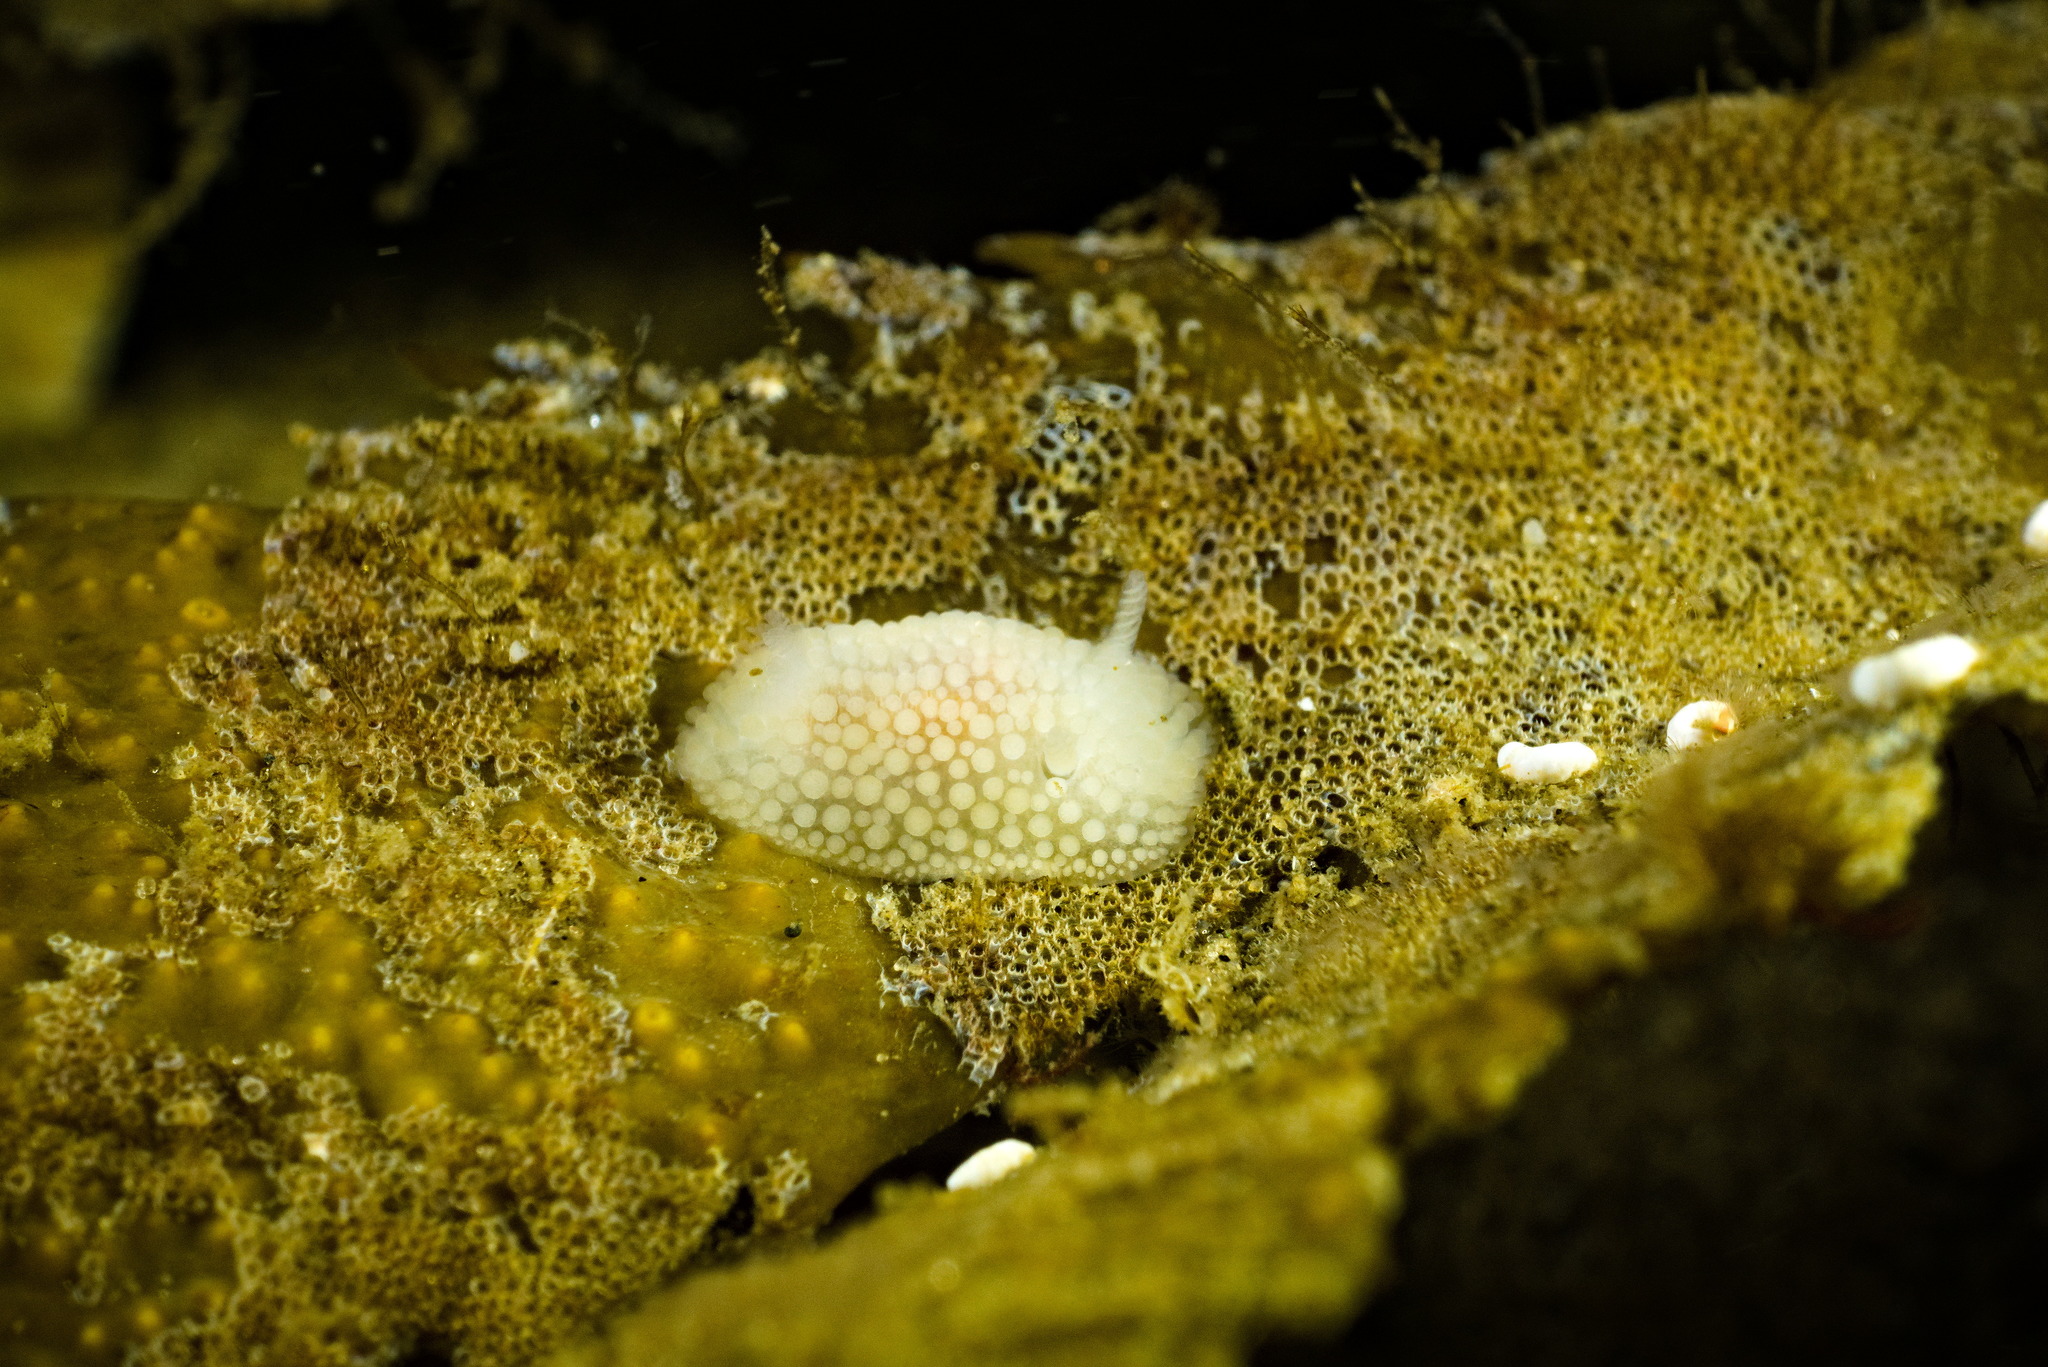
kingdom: Animalia
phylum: Mollusca
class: Gastropoda
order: Nudibranchia
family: Onchidorididae
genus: Onchidoris
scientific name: Onchidoris muricata
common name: Rough doris
